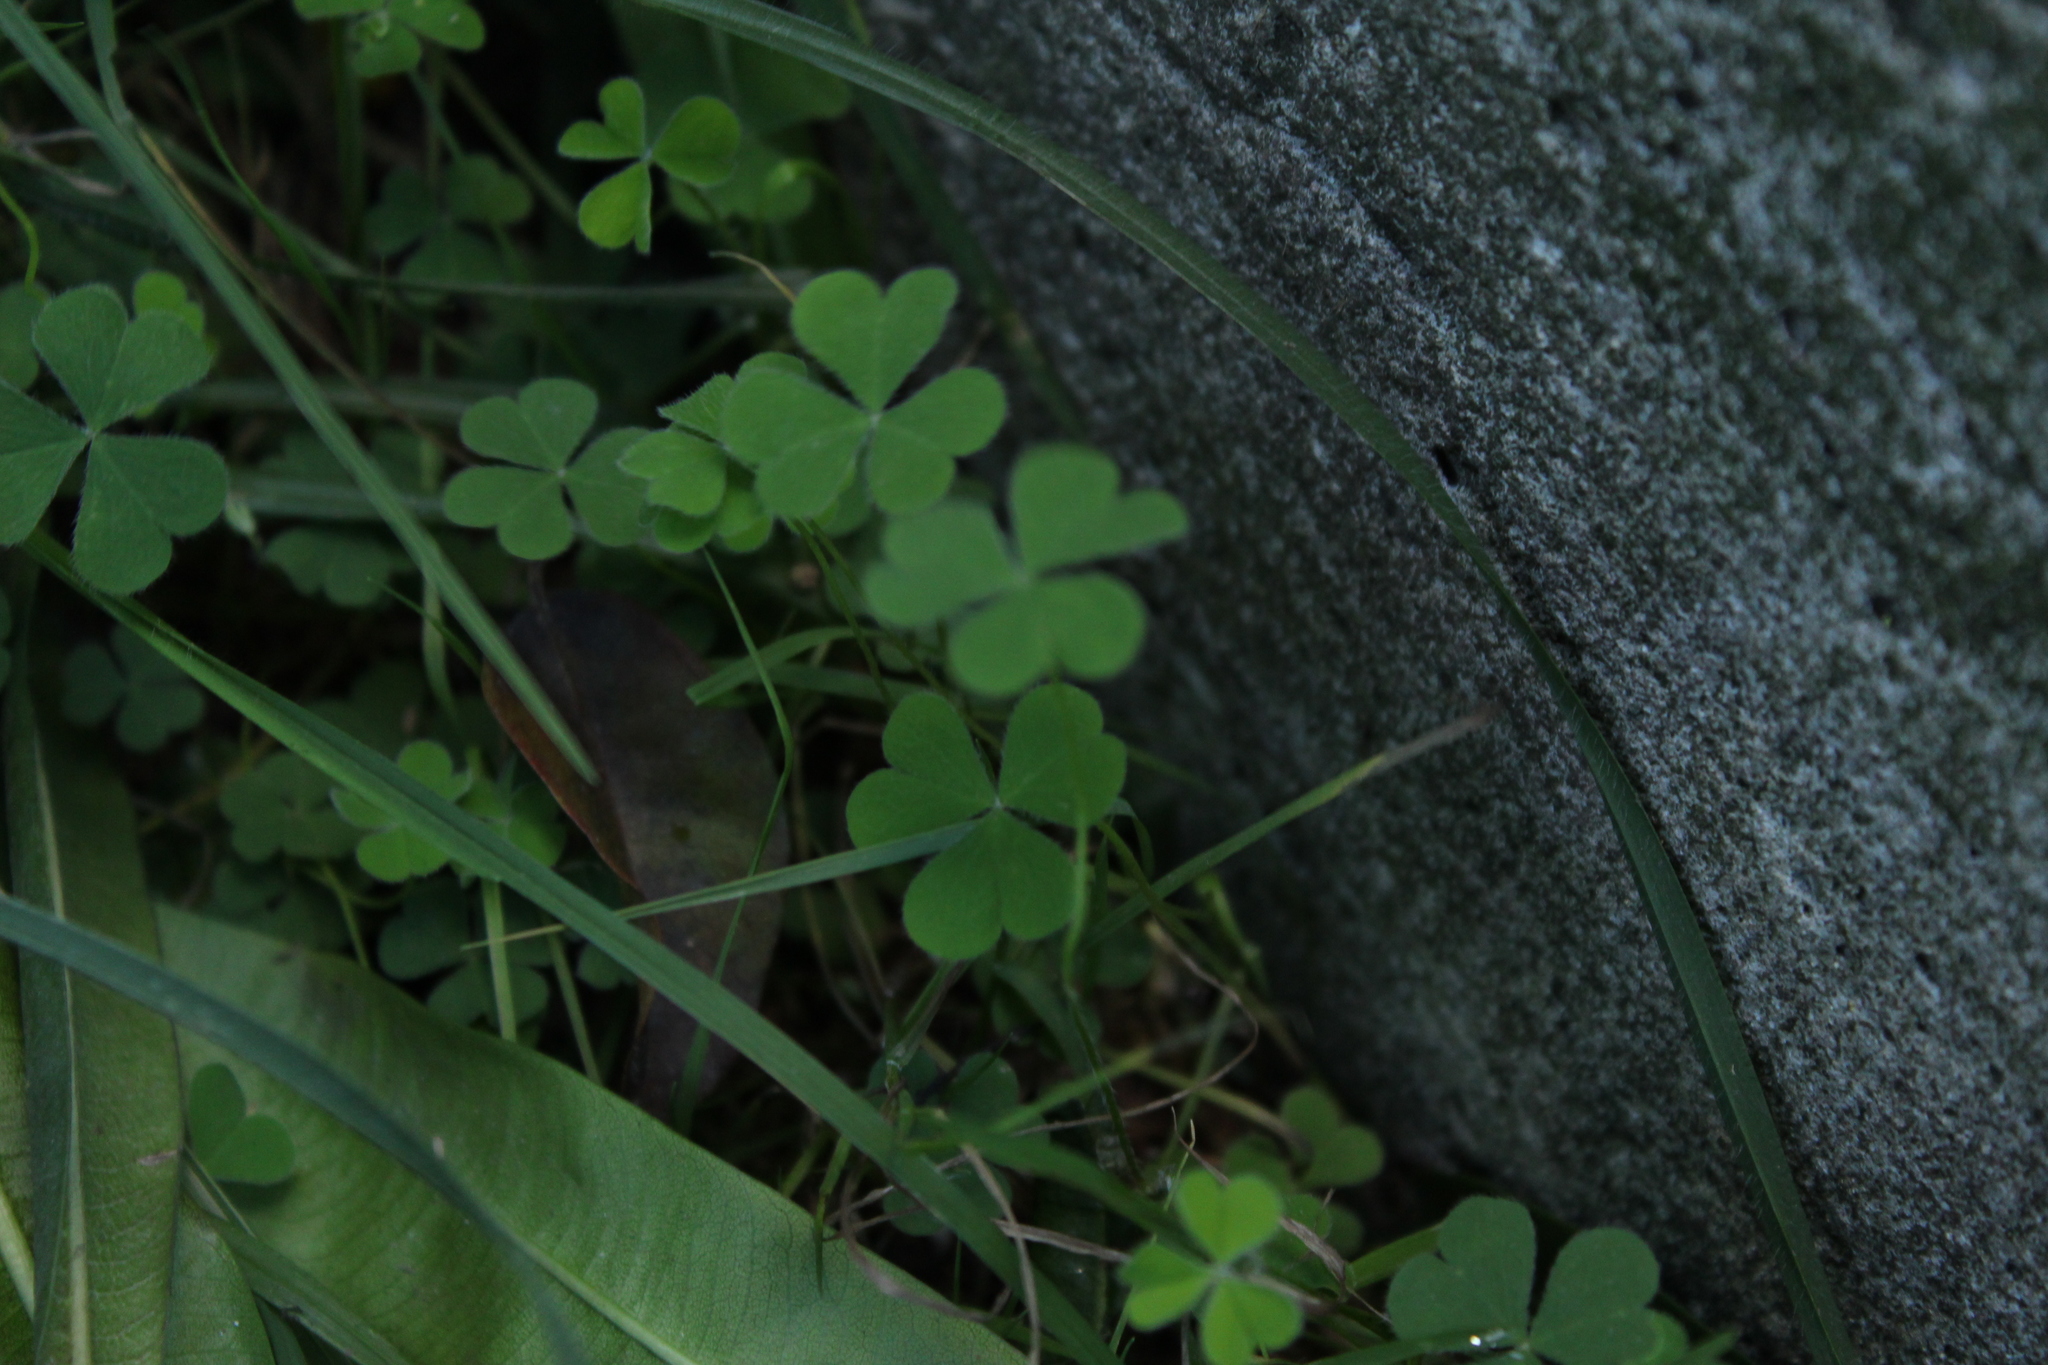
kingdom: Plantae
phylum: Tracheophyta
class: Magnoliopsida
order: Oxalidales
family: Oxalidaceae
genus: Oxalis
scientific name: Oxalis corniculata
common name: Procumbent yellow-sorrel
